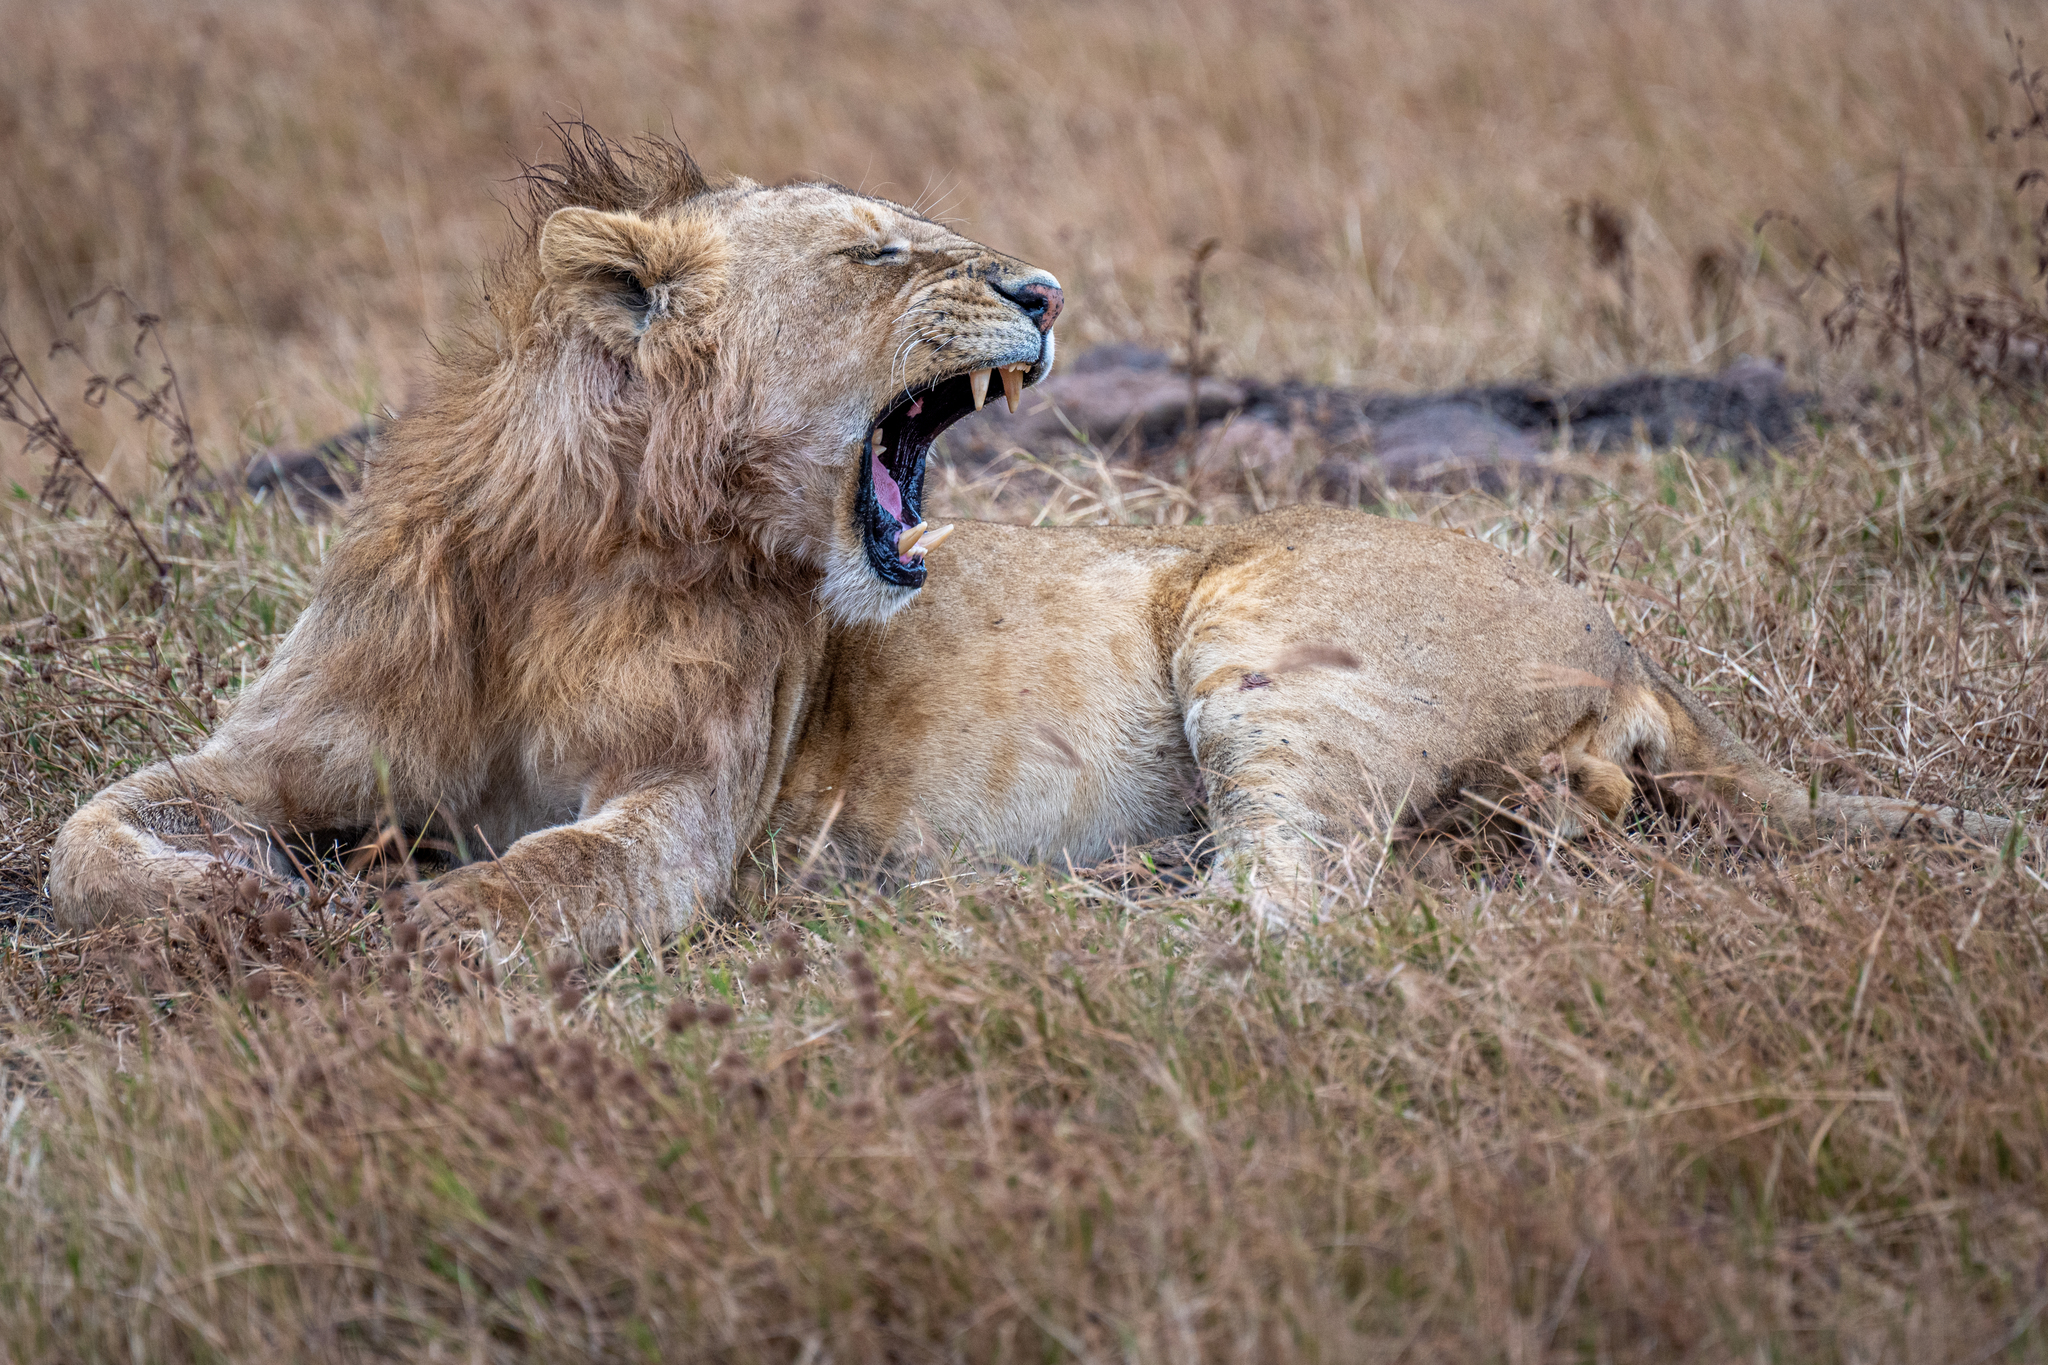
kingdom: Animalia
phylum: Chordata
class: Mammalia
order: Carnivora
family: Felidae
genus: Panthera
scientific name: Panthera leo
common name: Lion
